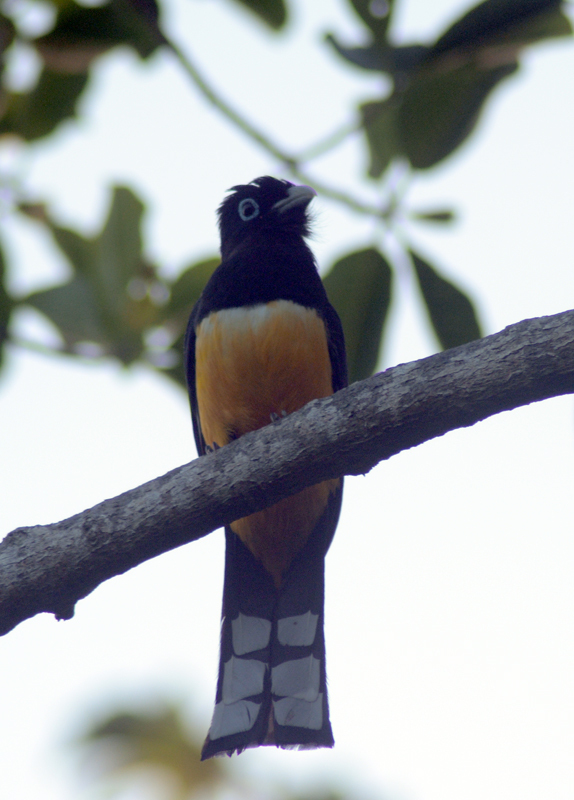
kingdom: Animalia
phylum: Chordata
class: Aves
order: Trogoniformes
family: Trogonidae
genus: Trogon
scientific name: Trogon melanocephalus
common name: Black-headed trogon
